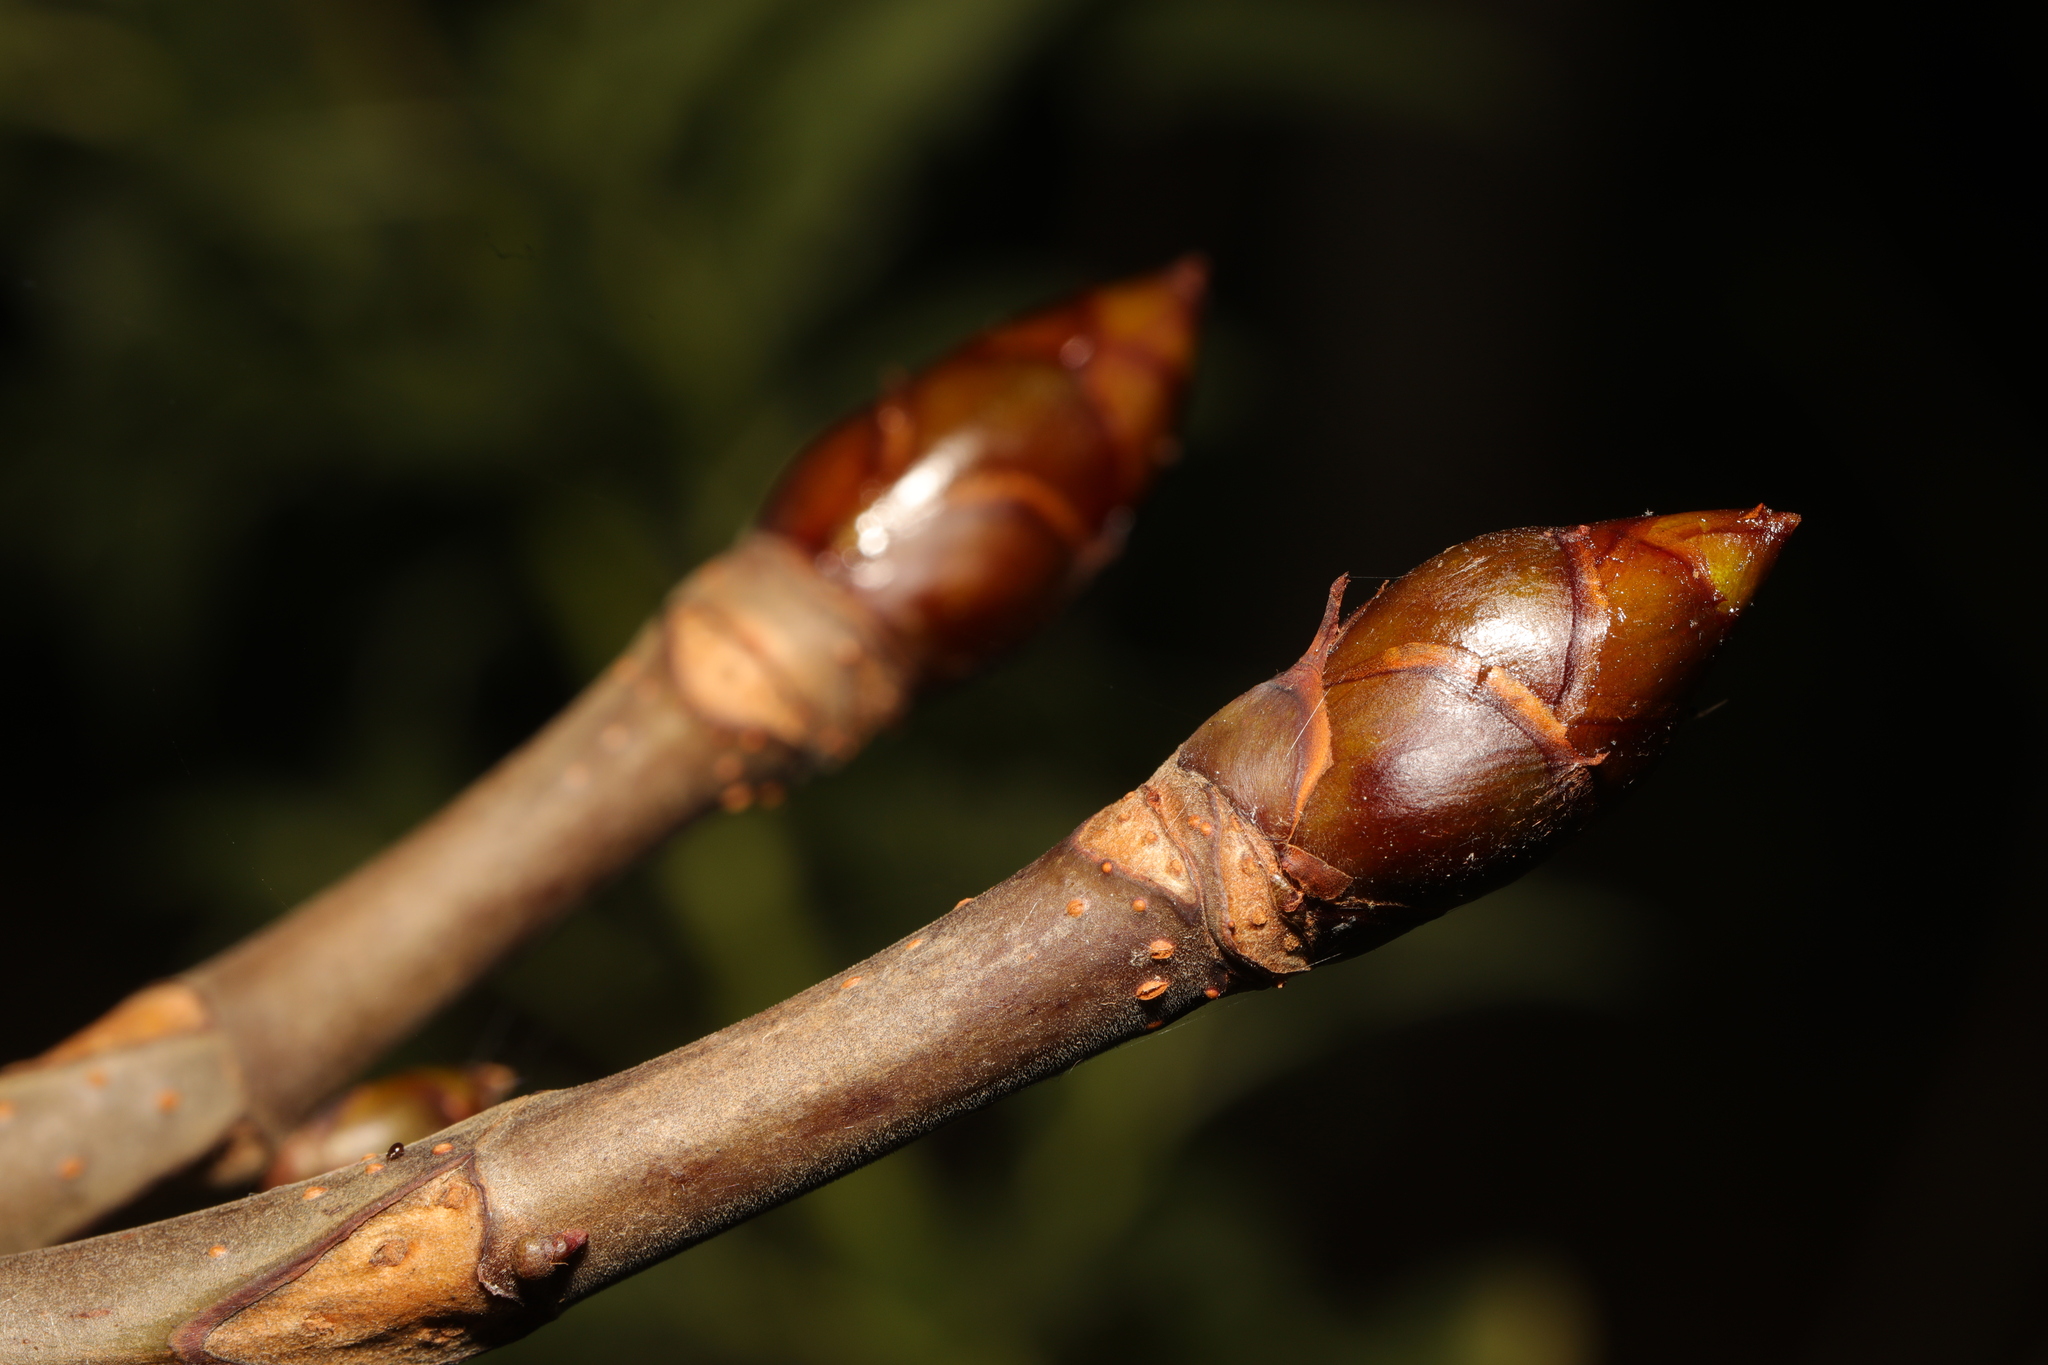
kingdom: Plantae
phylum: Tracheophyta
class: Magnoliopsida
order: Sapindales
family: Sapindaceae
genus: Aesculus
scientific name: Aesculus hippocastanum
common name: Horse-chestnut
